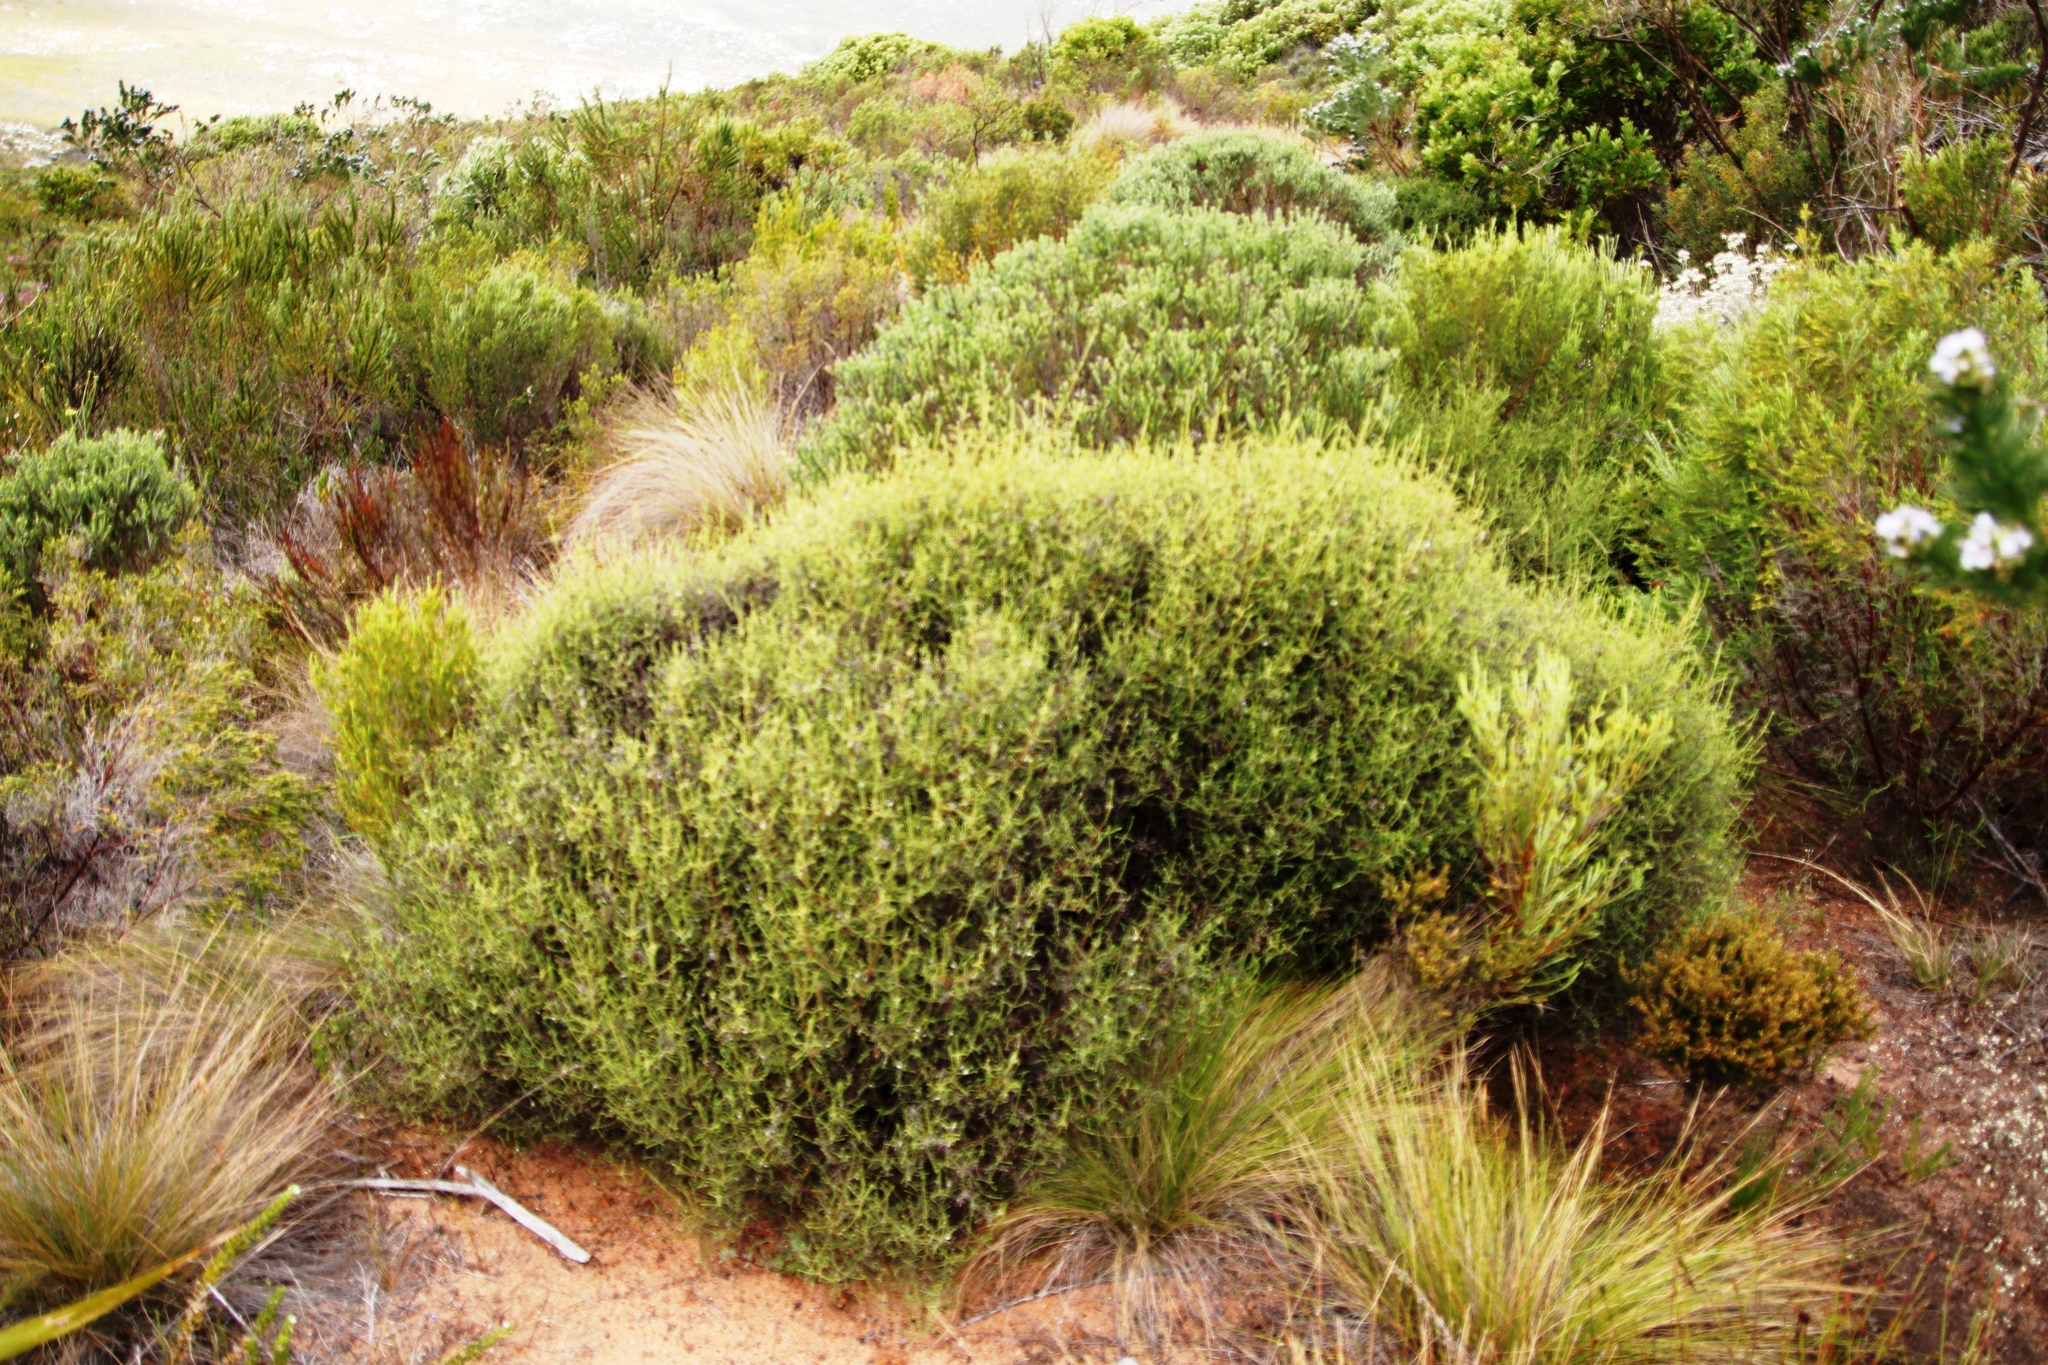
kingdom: Plantae
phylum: Tracheophyta
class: Magnoliopsida
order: Asterales
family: Asteraceae
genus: Myrovernix
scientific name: Myrovernix scaber
